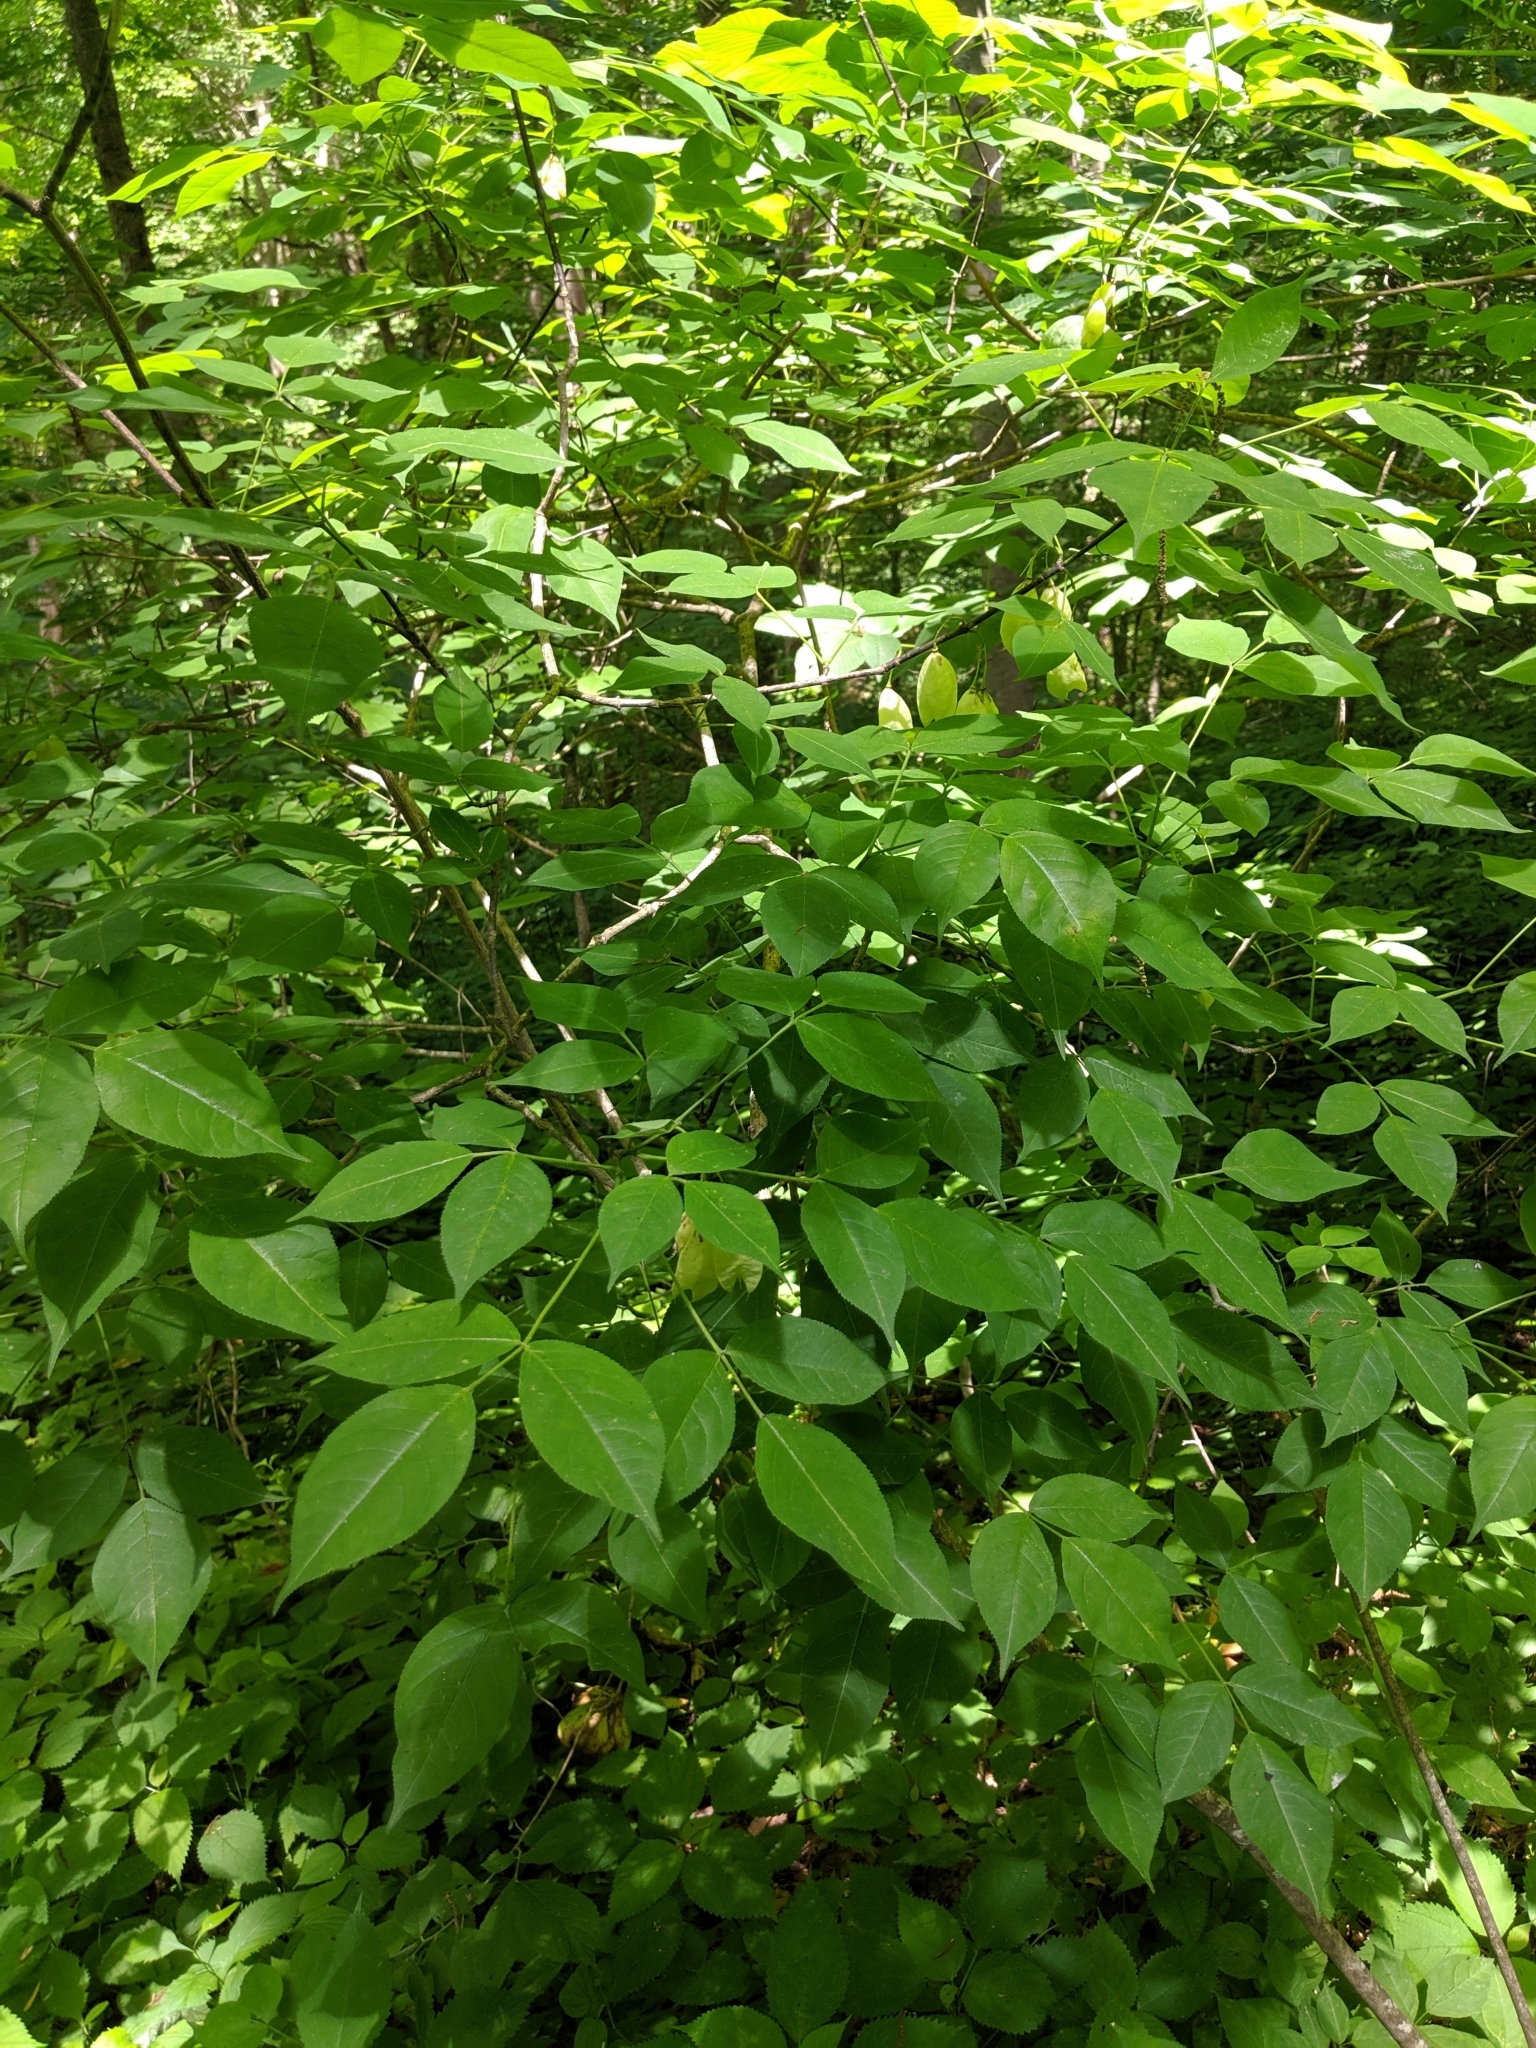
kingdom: Plantae
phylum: Tracheophyta
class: Magnoliopsida
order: Crossosomatales
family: Staphyleaceae
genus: Staphylea
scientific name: Staphylea trifolia
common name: American bladdernut
